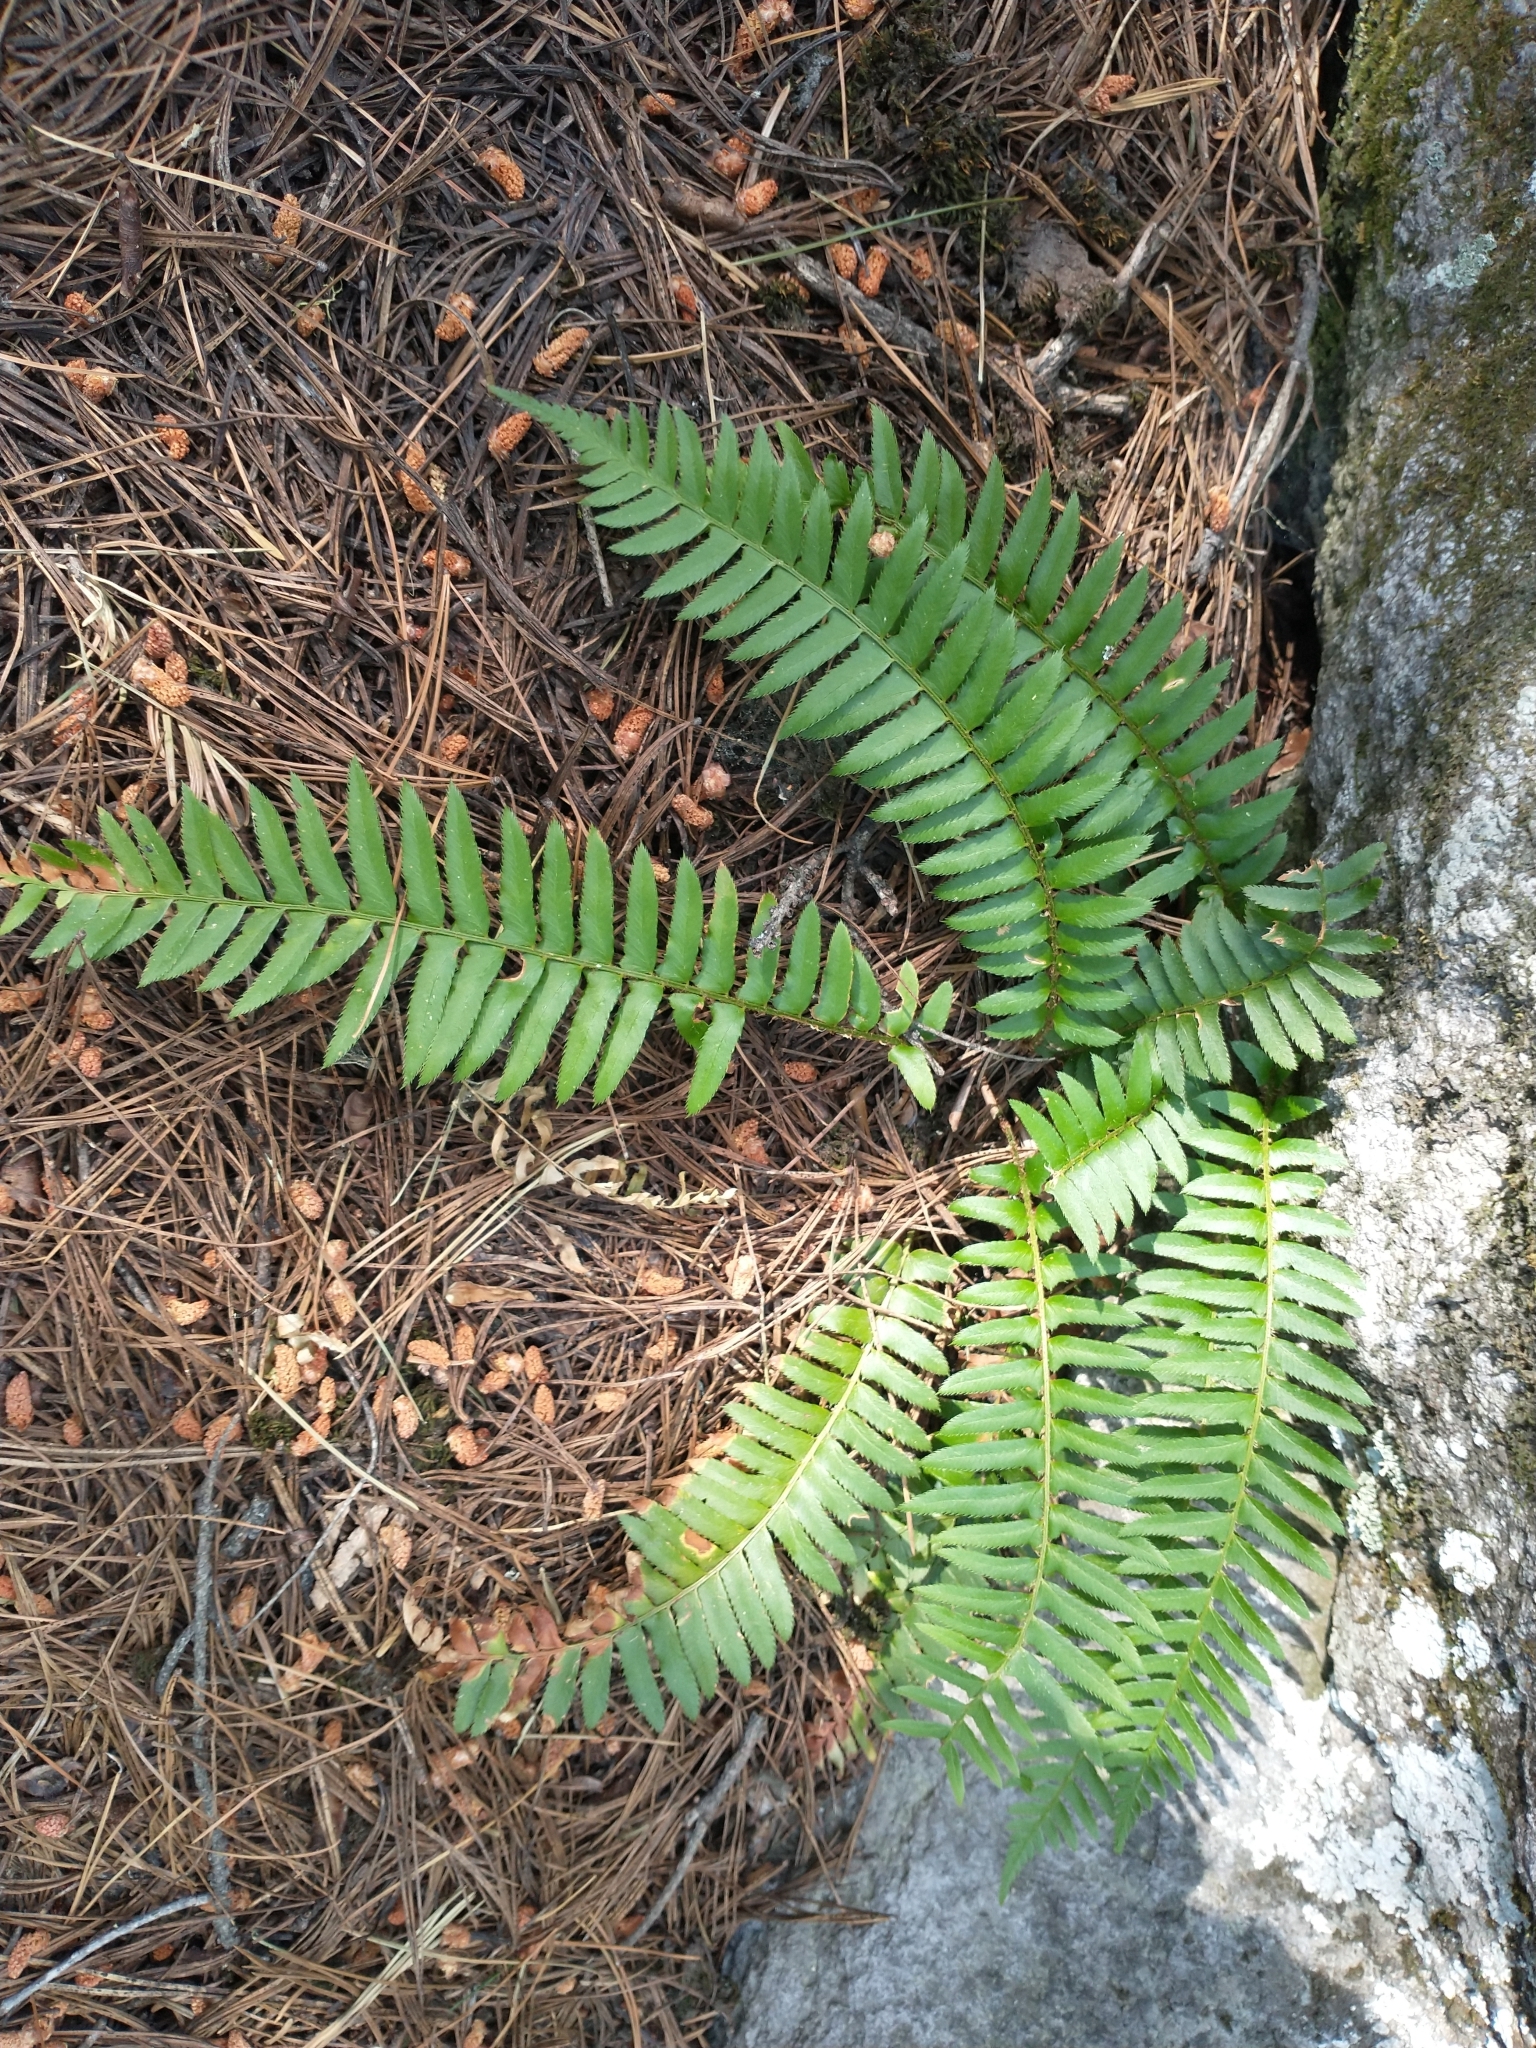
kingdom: Plantae
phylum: Tracheophyta
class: Polypodiopsida
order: Polypodiales
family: Dryopteridaceae
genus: Polystichum
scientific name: Polystichum munitum
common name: Western sword-fern
